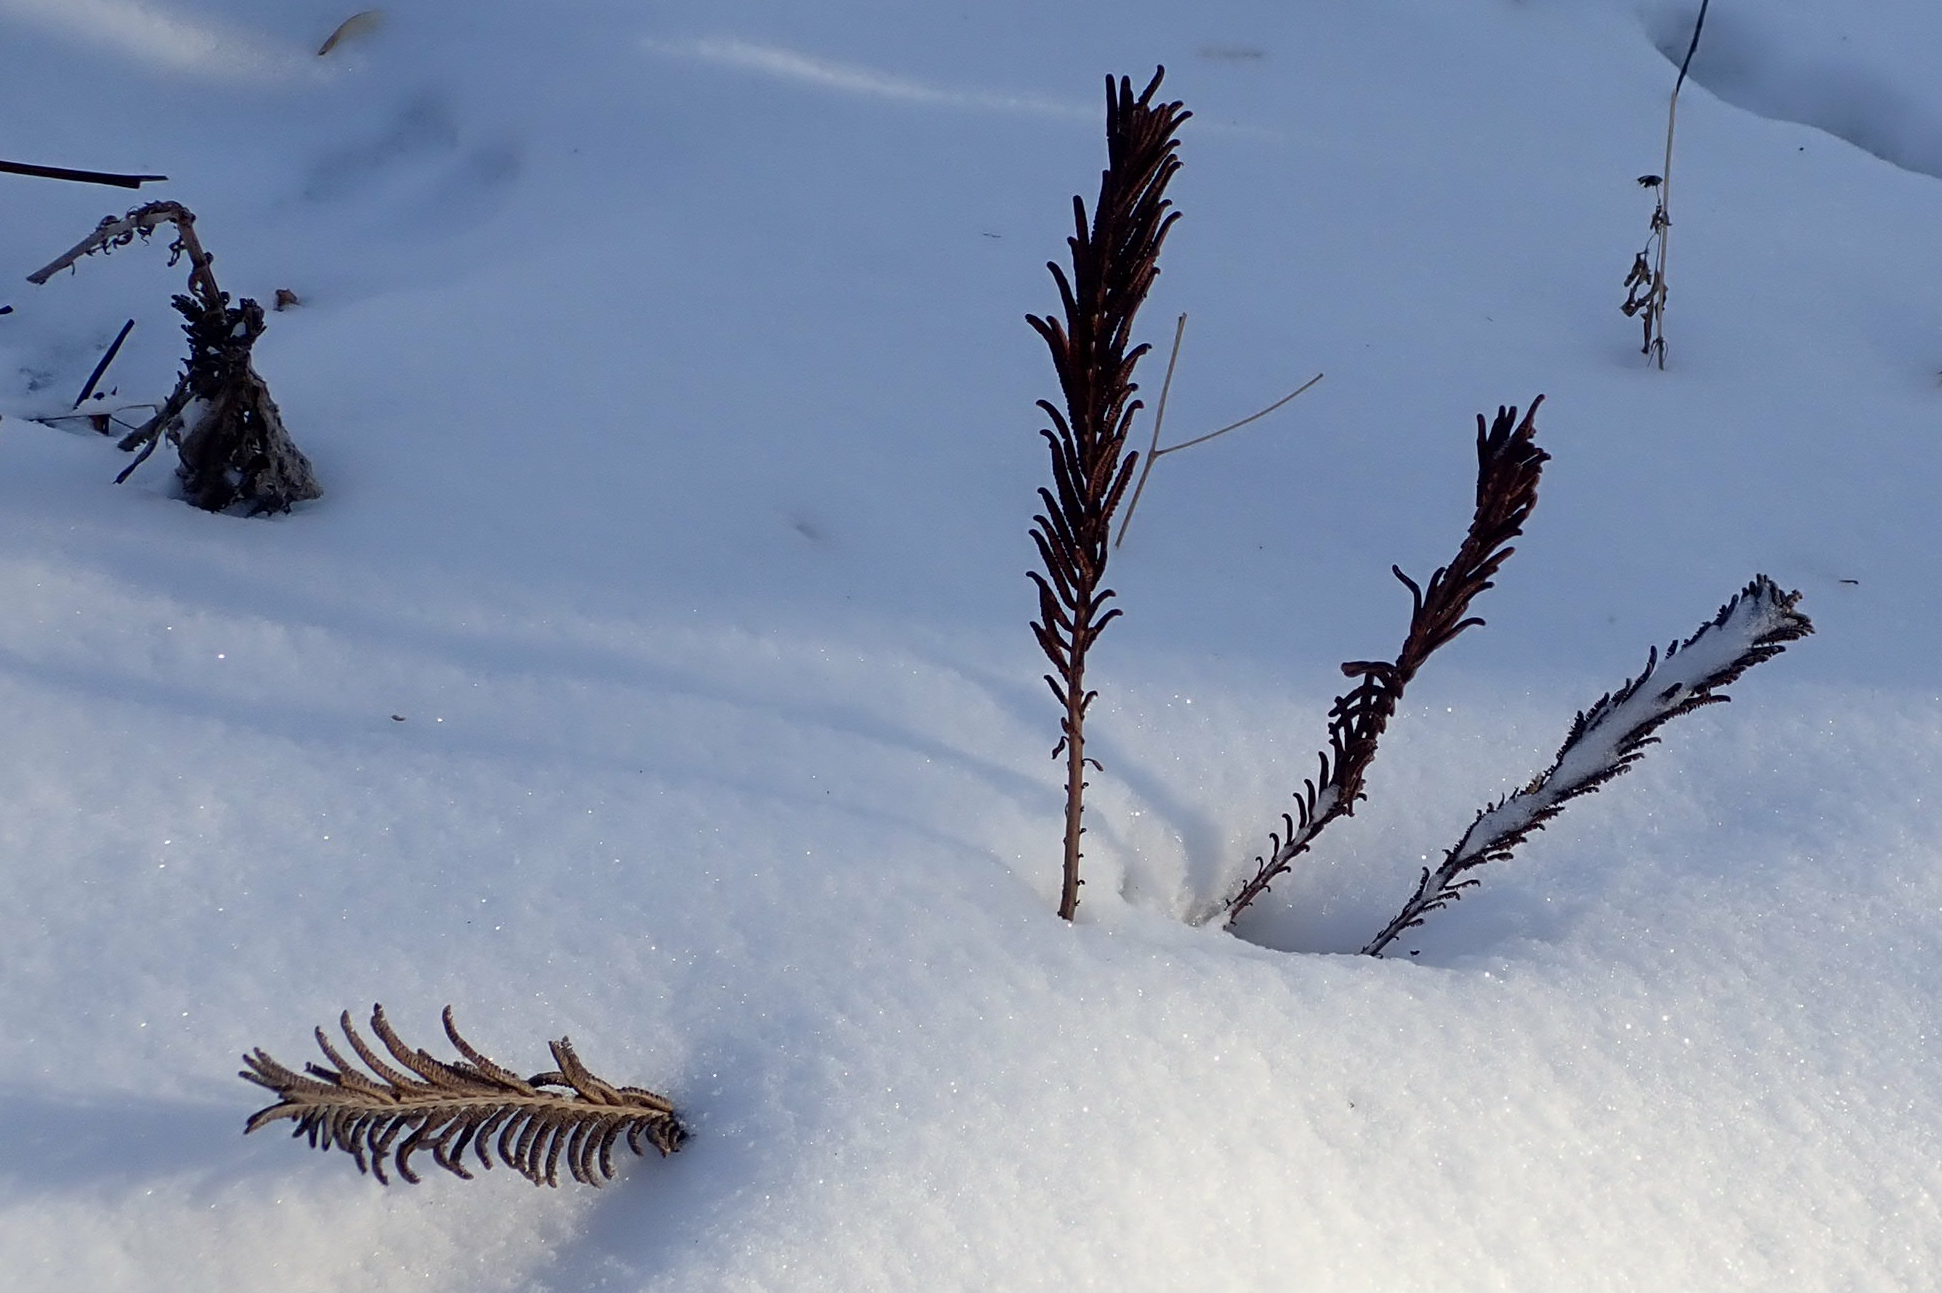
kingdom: Plantae
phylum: Tracheophyta
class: Polypodiopsida
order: Polypodiales
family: Onocleaceae
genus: Matteuccia
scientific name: Matteuccia struthiopteris
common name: Ostrich fern
